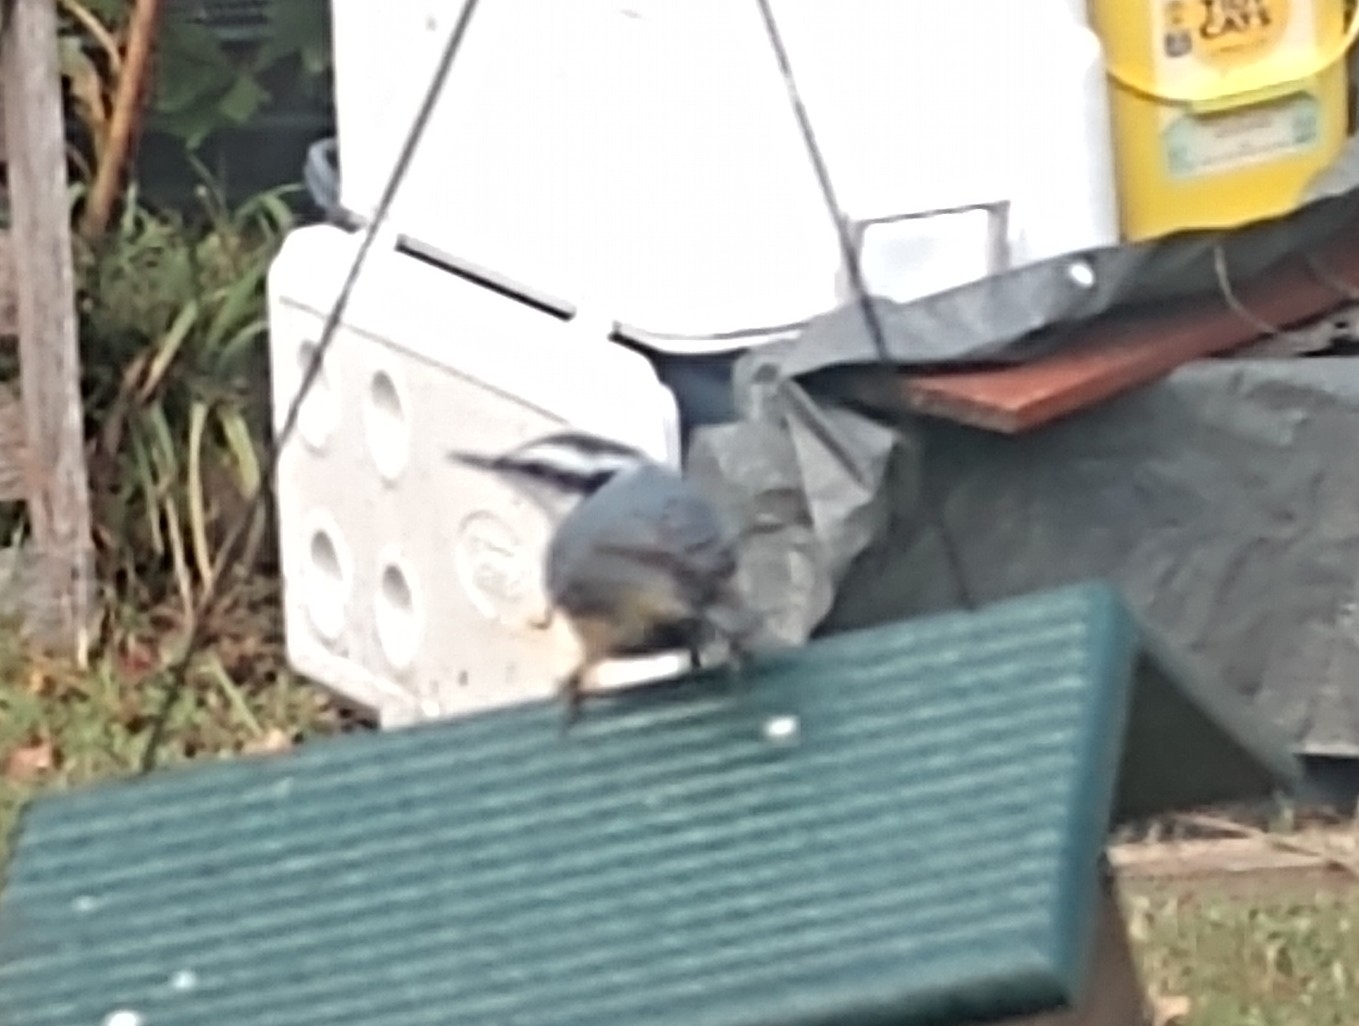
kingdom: Animalia
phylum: Chordata
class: Aves
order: Passeriformes
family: Sittidae
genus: Sitta
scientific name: Sitta canadensis
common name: Red-breasted nuthatch
